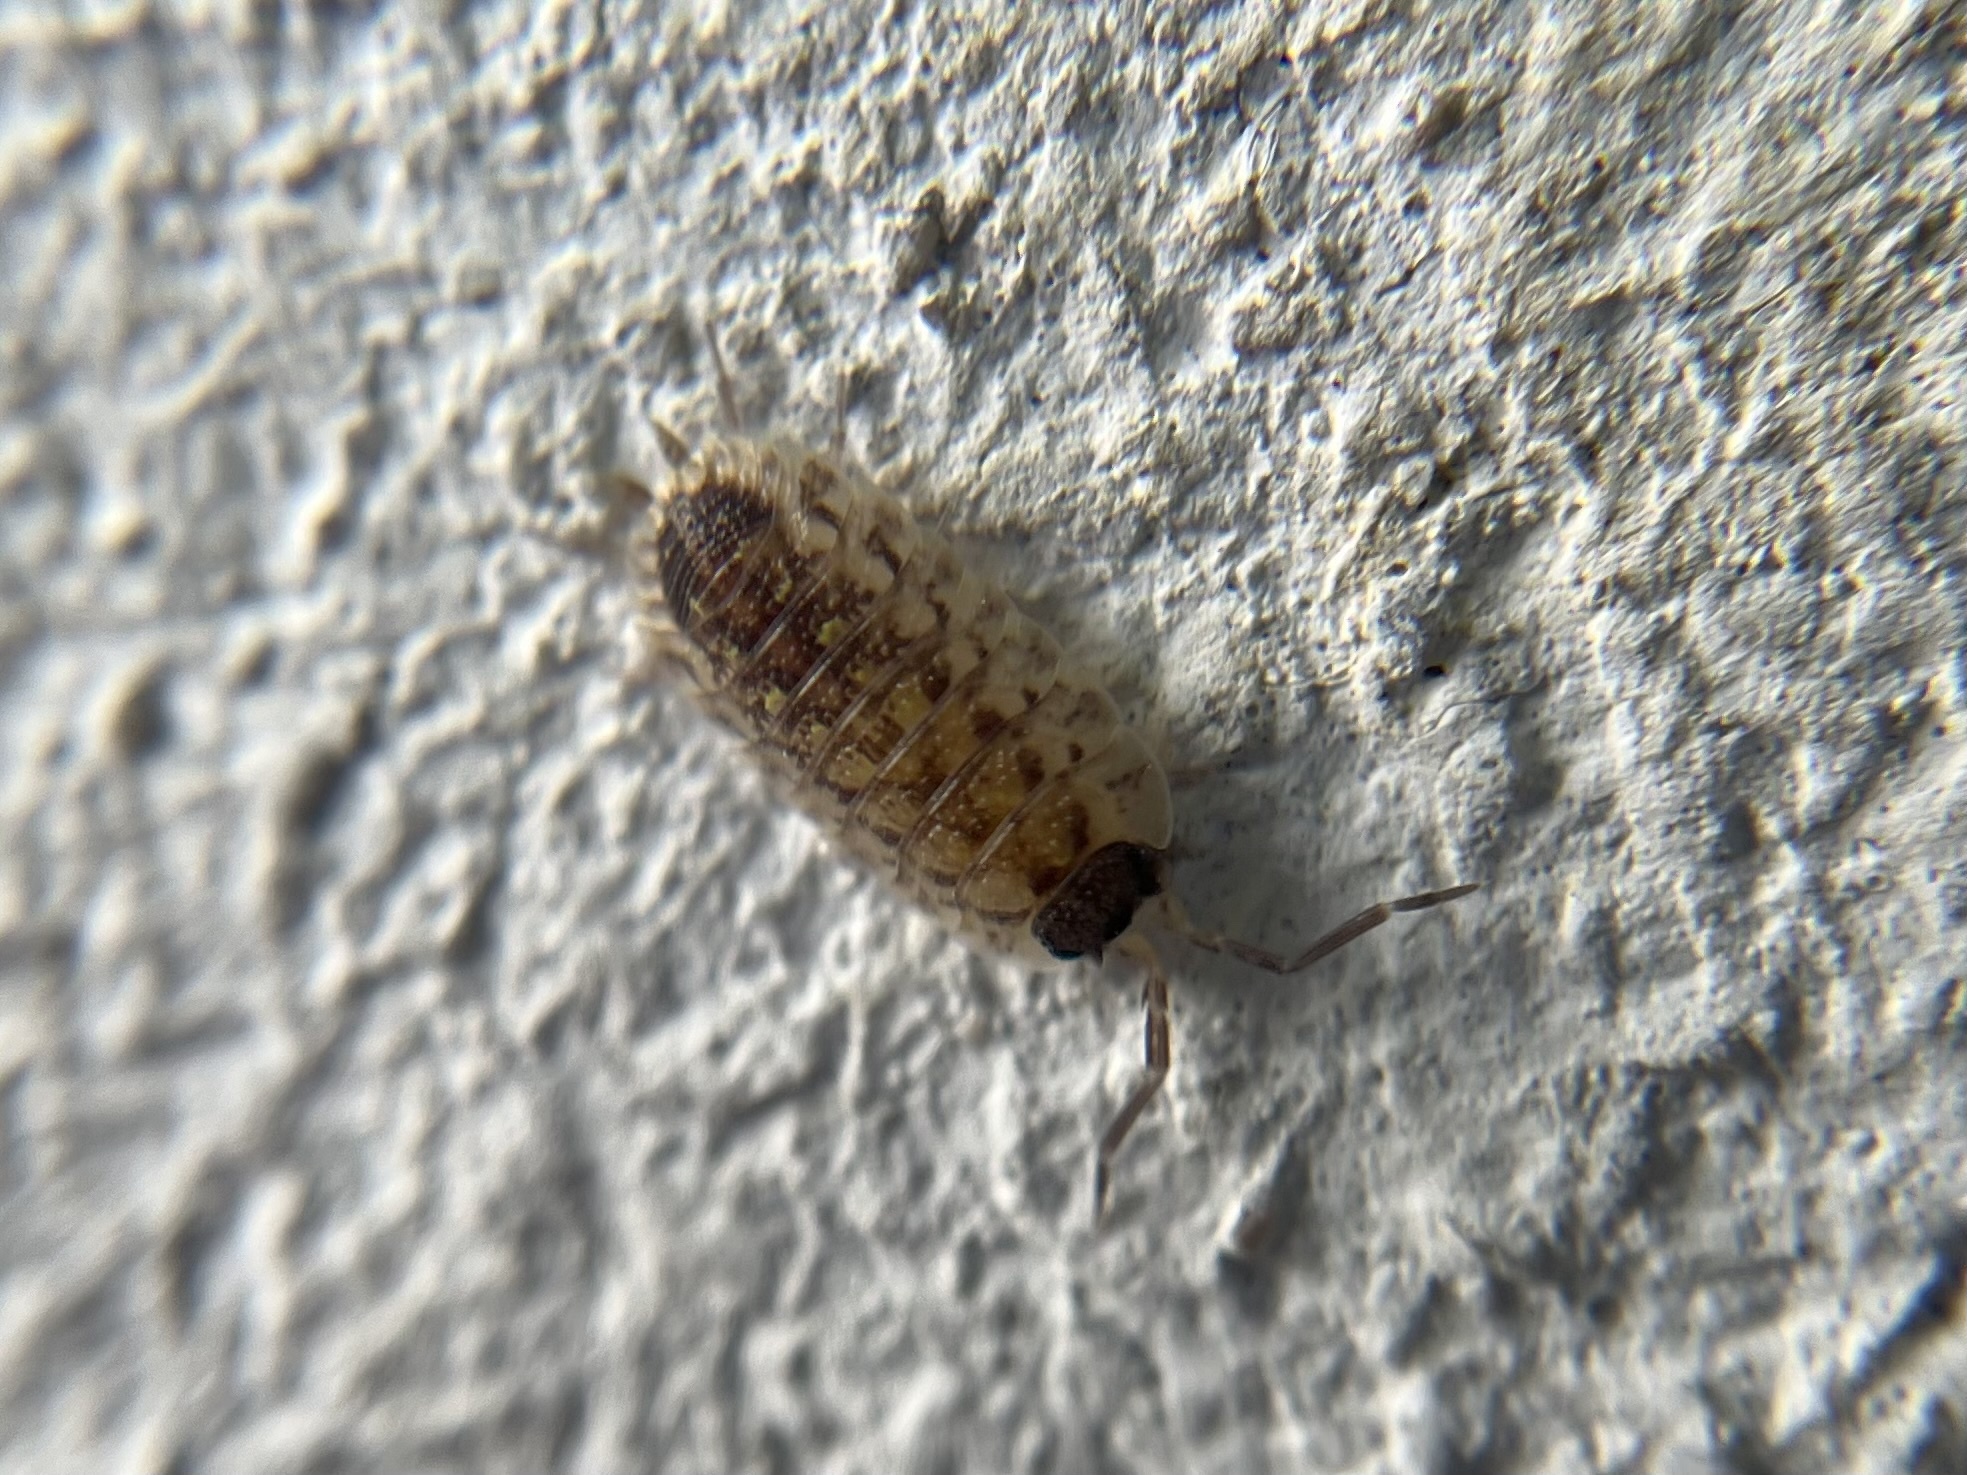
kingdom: Animalia
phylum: Arthropoda
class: Malacostraca
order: Isopoda
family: Porcellionidae
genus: Porcellio
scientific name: Porcellio spinicornis
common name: Painted woodlouse
